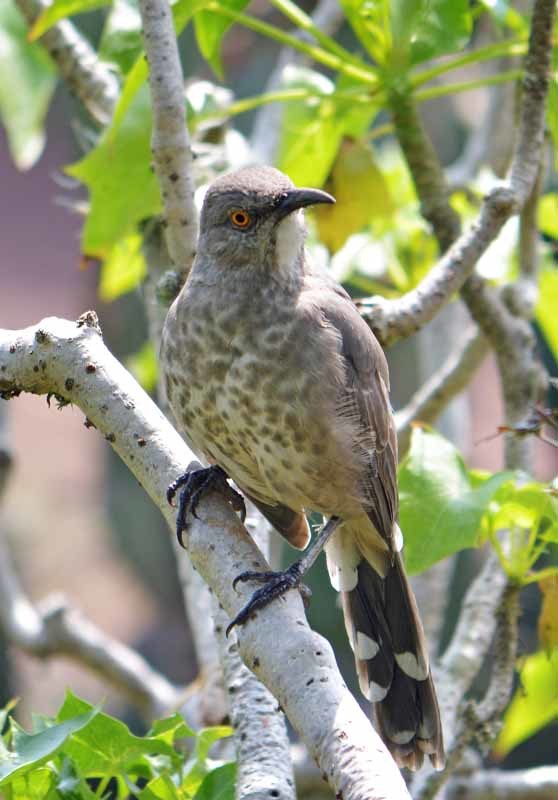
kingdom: Animalia
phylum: Chordata
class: Aves
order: Passeriformes
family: Mimidae
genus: Toxostoma
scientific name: Toxostoma curvirostre
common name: Curve-billed thrasher
